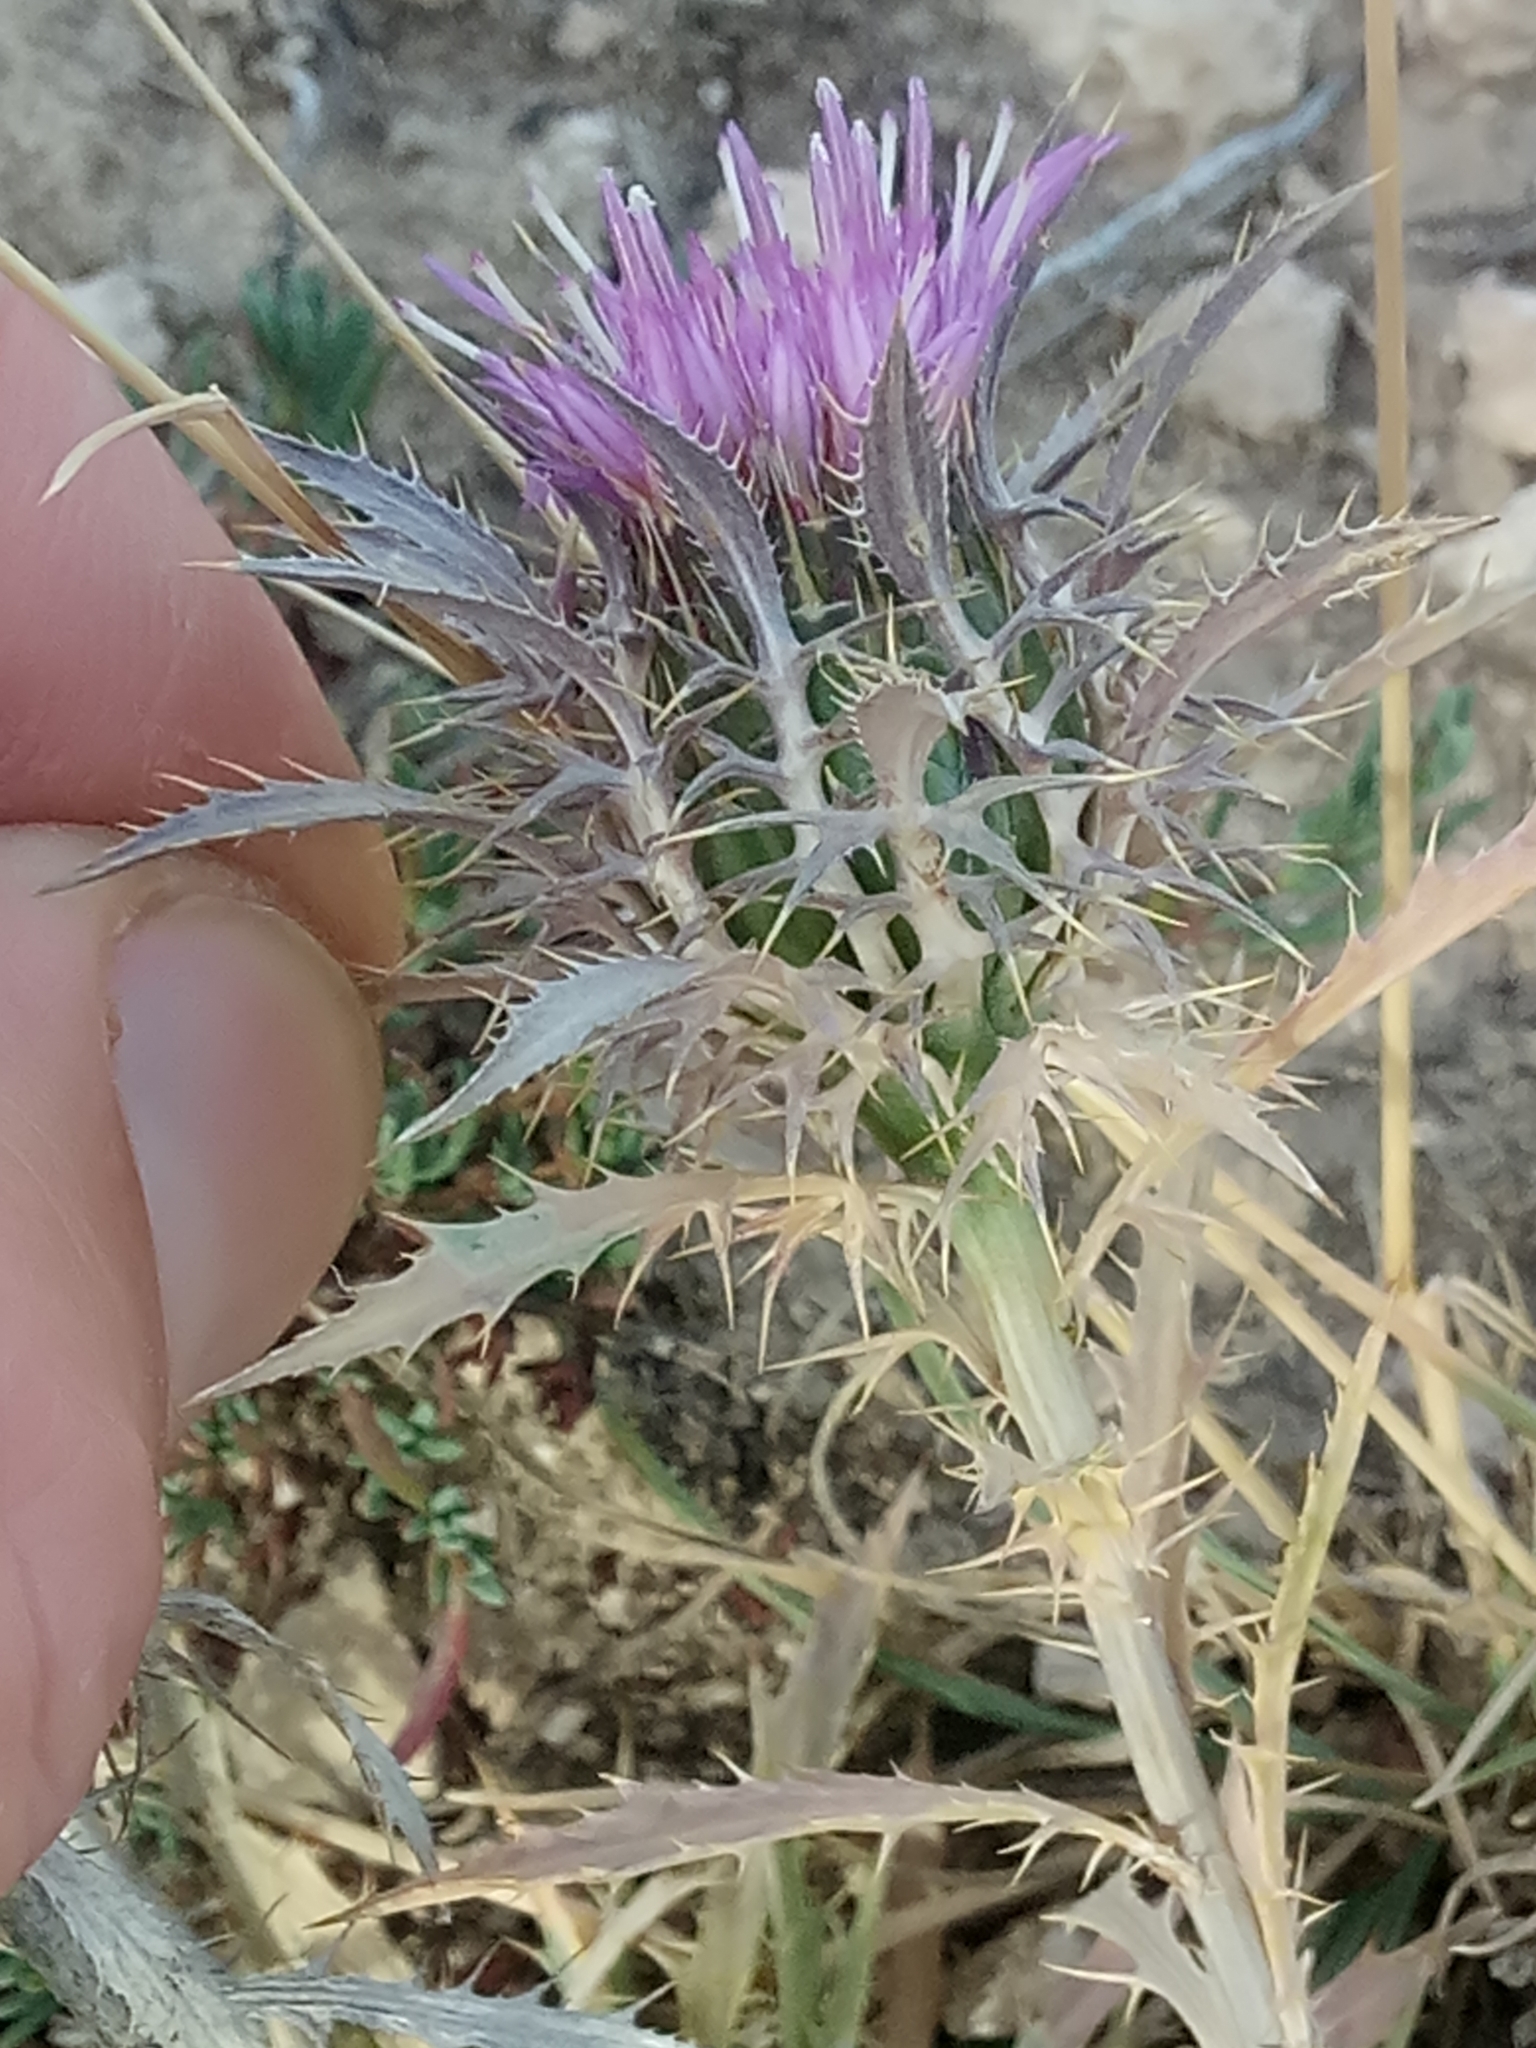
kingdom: Plantae
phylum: Tracheophyta
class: Magnoliopsida
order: Asterales
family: Asteraceae
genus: Atractylis
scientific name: Atractylis caespitosa
